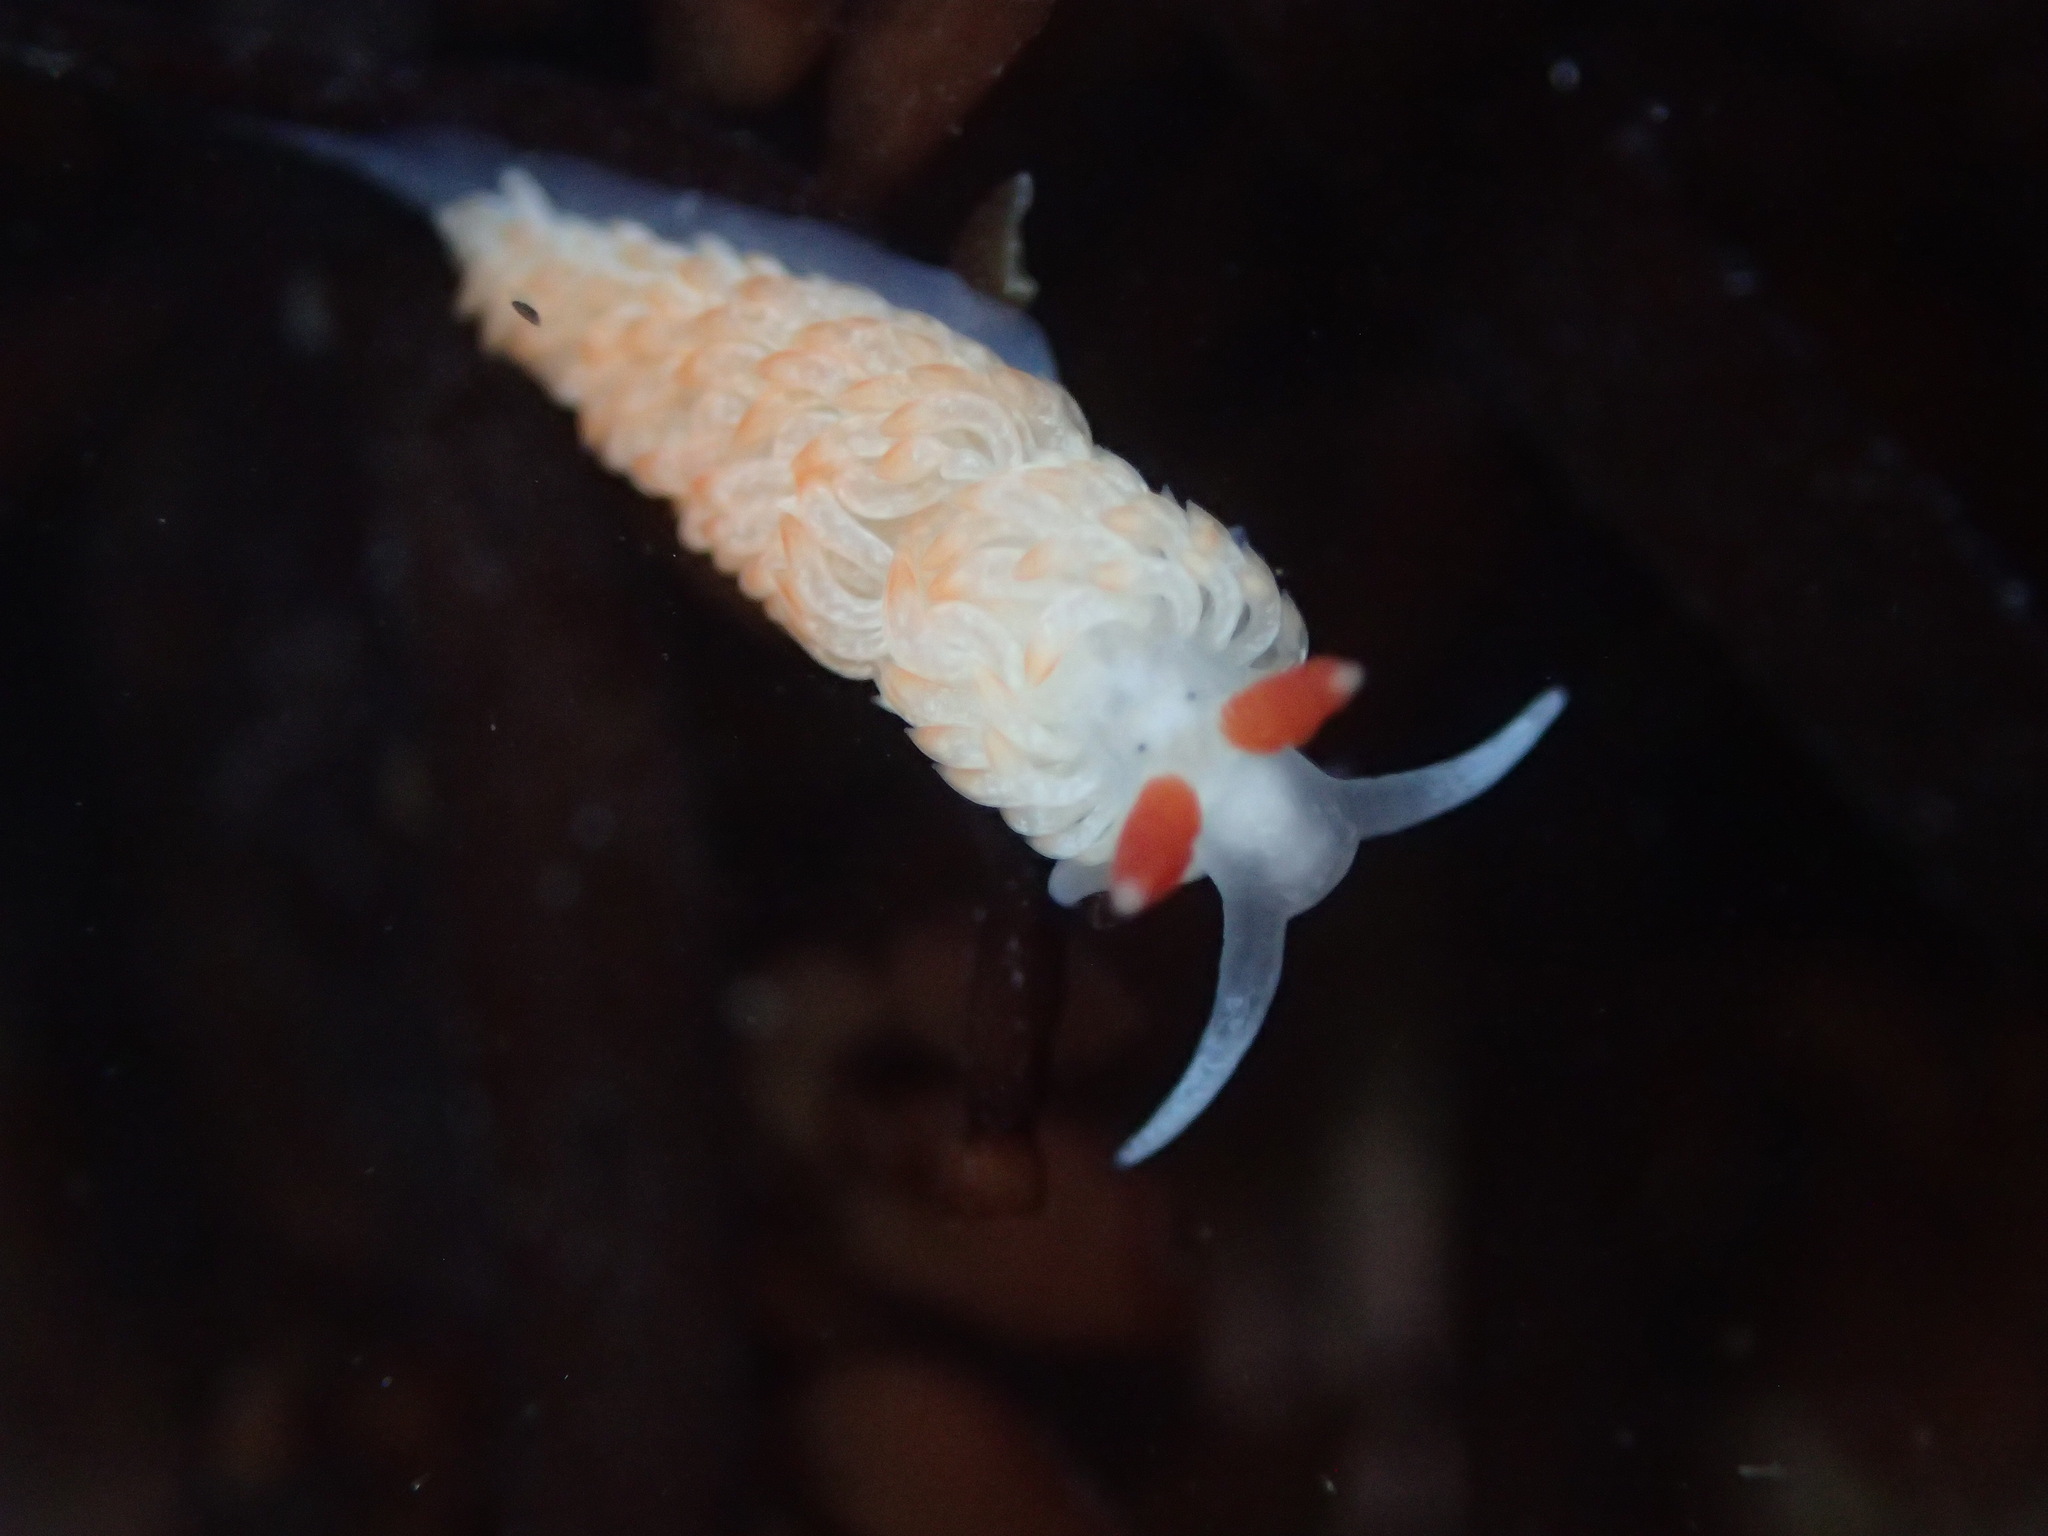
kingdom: Animalia
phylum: Mollusca
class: Gastropoda
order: Nudibranchia
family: Aeolidiidae
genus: Anteaeolidiella
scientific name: Anteaeolidiella oliviae
